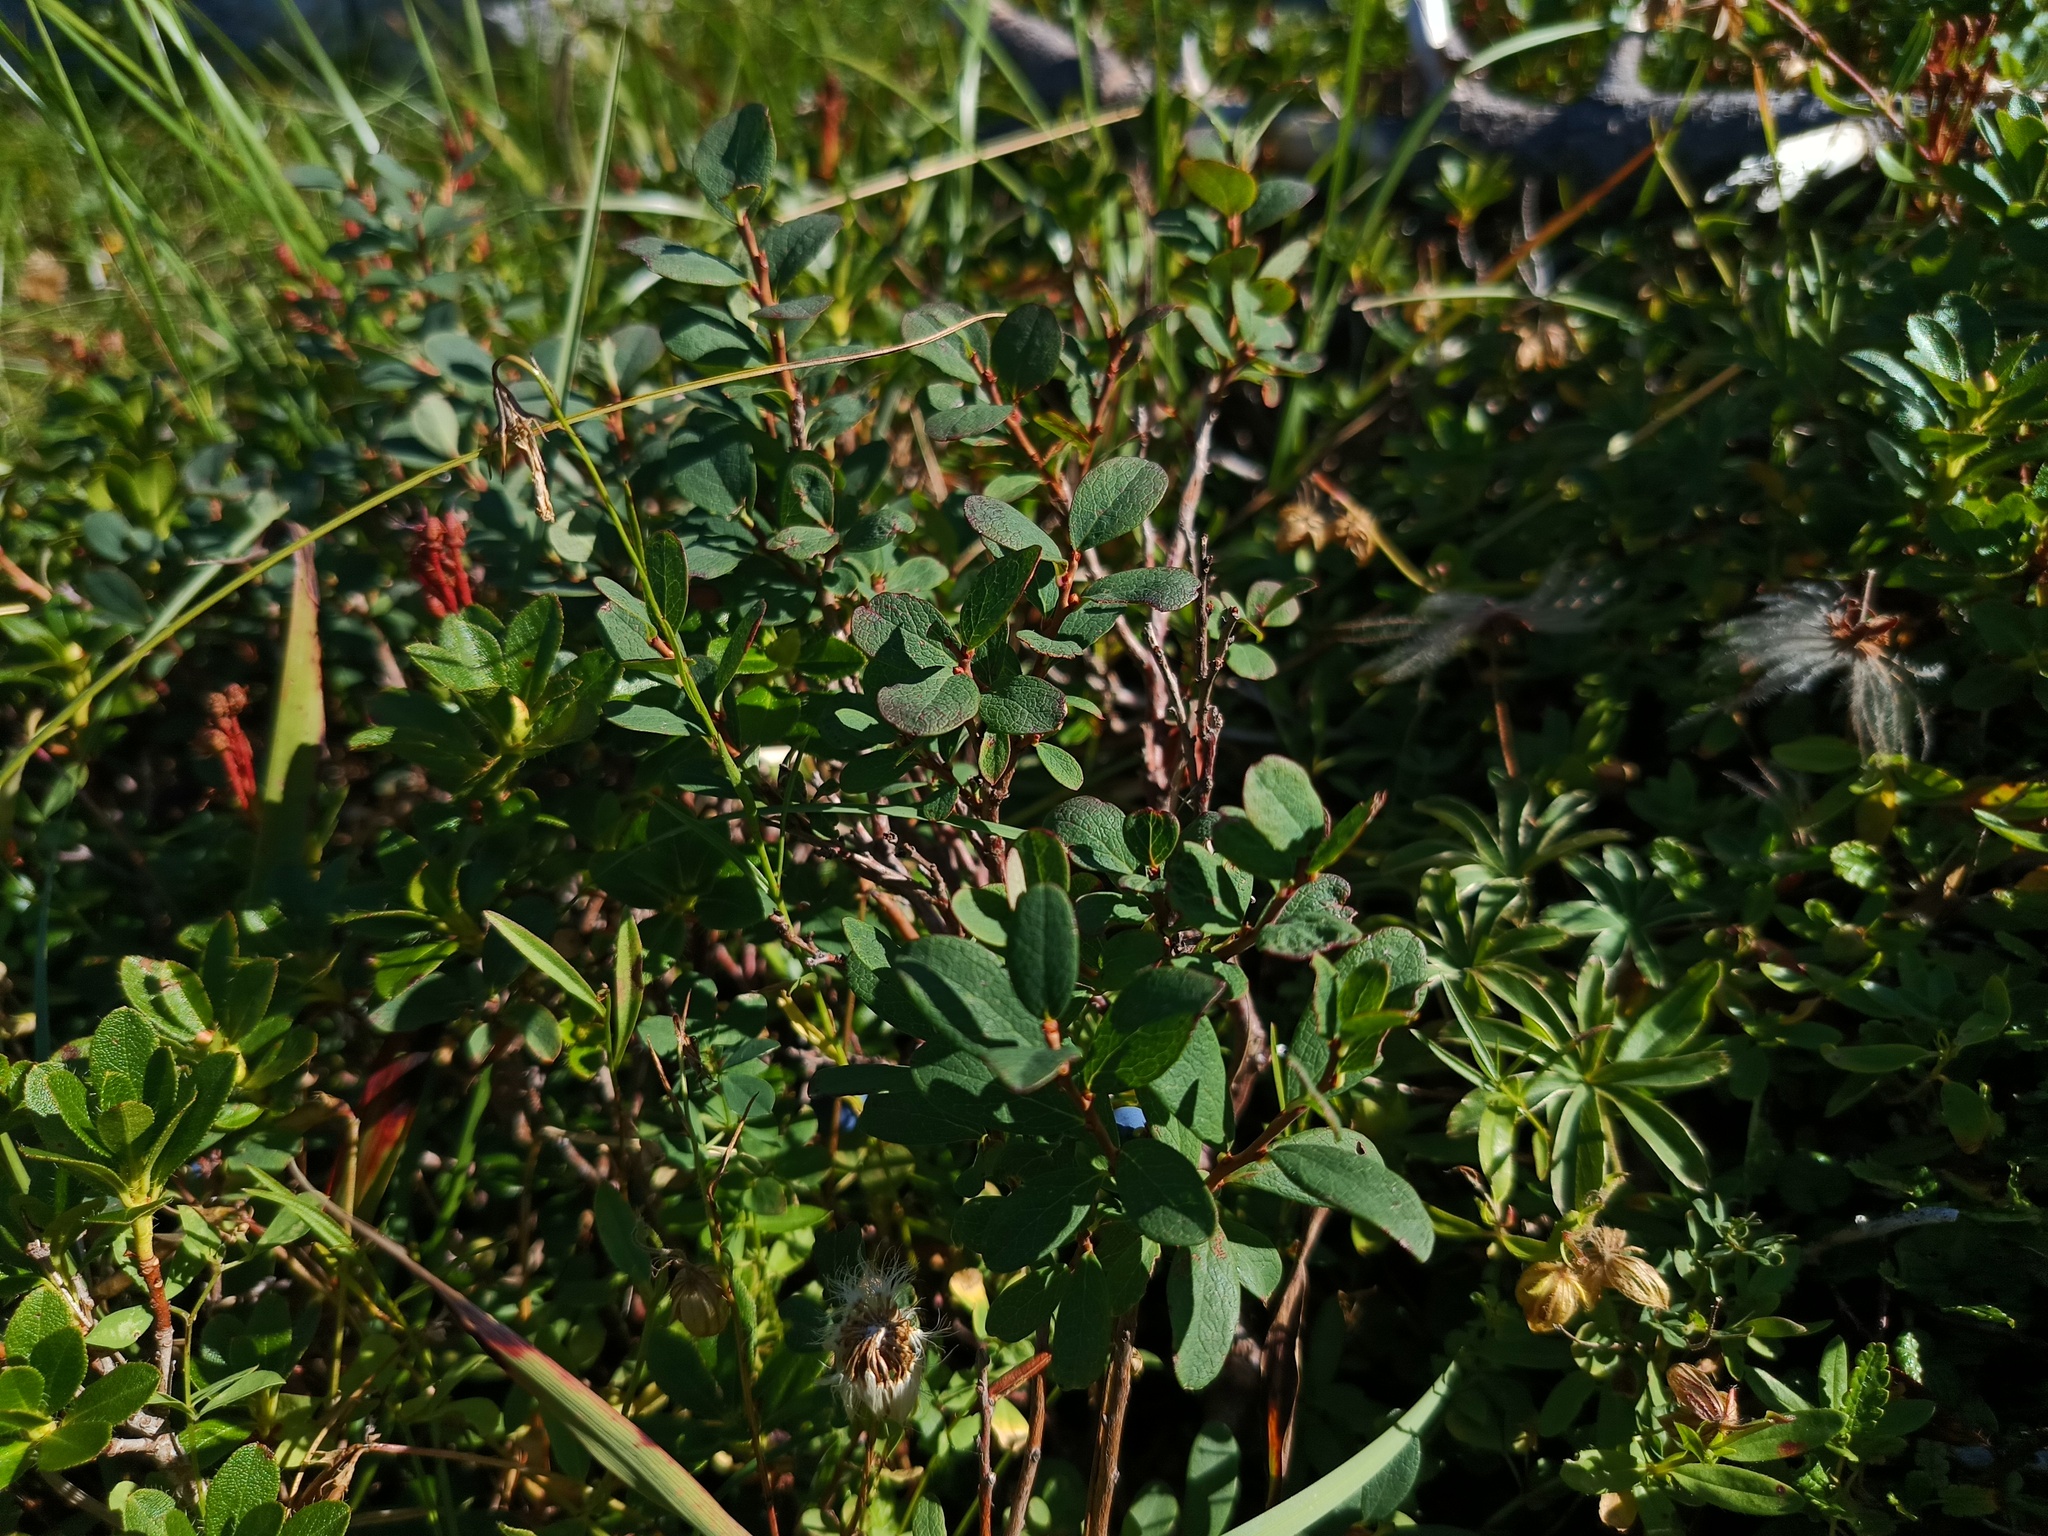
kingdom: Plantae
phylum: Tracheophyta
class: Magnoliopsida
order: Ericales
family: Ericaceae
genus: Vaccinium
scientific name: Vaccinium uliginosum
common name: Bog bilberry
